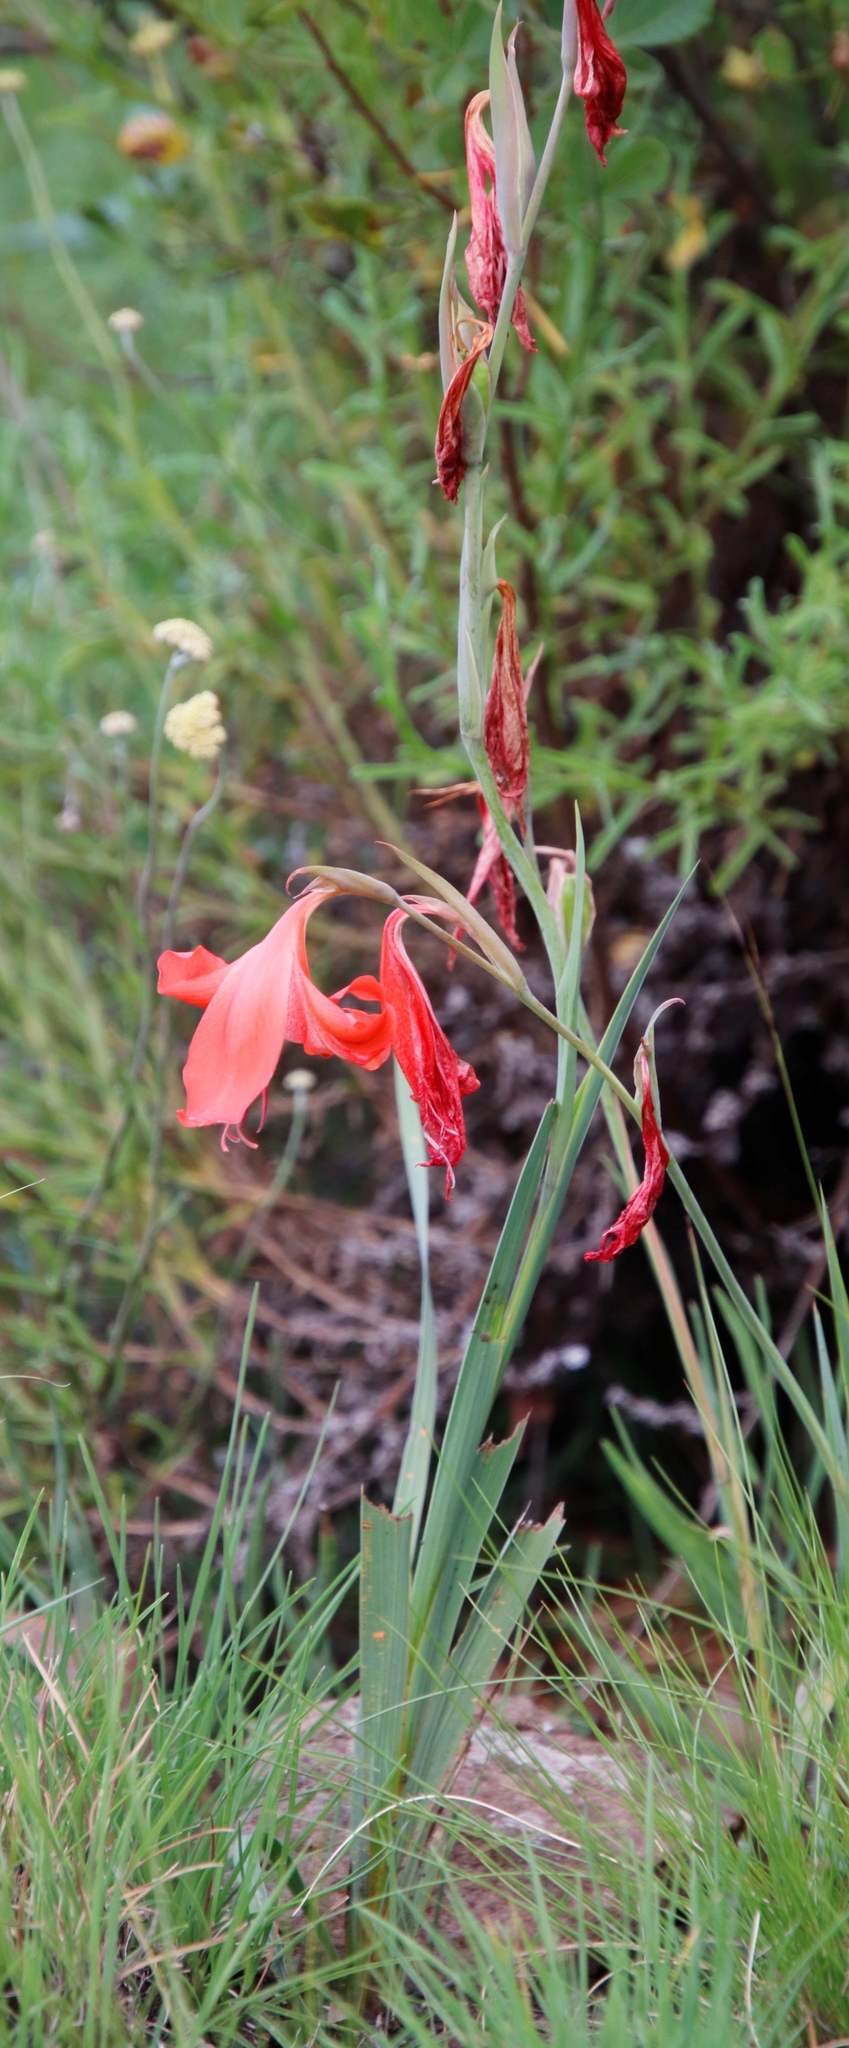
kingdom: Plantae
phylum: Tracheophyta
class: Liliopsida
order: Asparagales
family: Iridaceae
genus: Gladiolus
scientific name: Gladiolus saundersii
